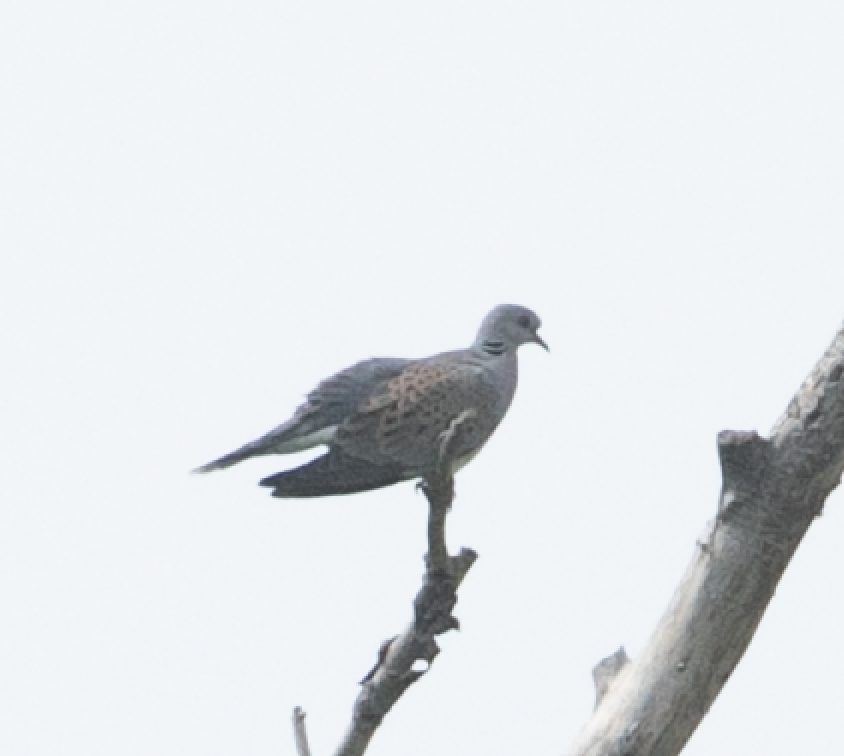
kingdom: Animalia
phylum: Chordata
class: Aves
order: Columbiformes
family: Columbidae
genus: Streptopelia
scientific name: Streptopelia turtur
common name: European turtle dove
